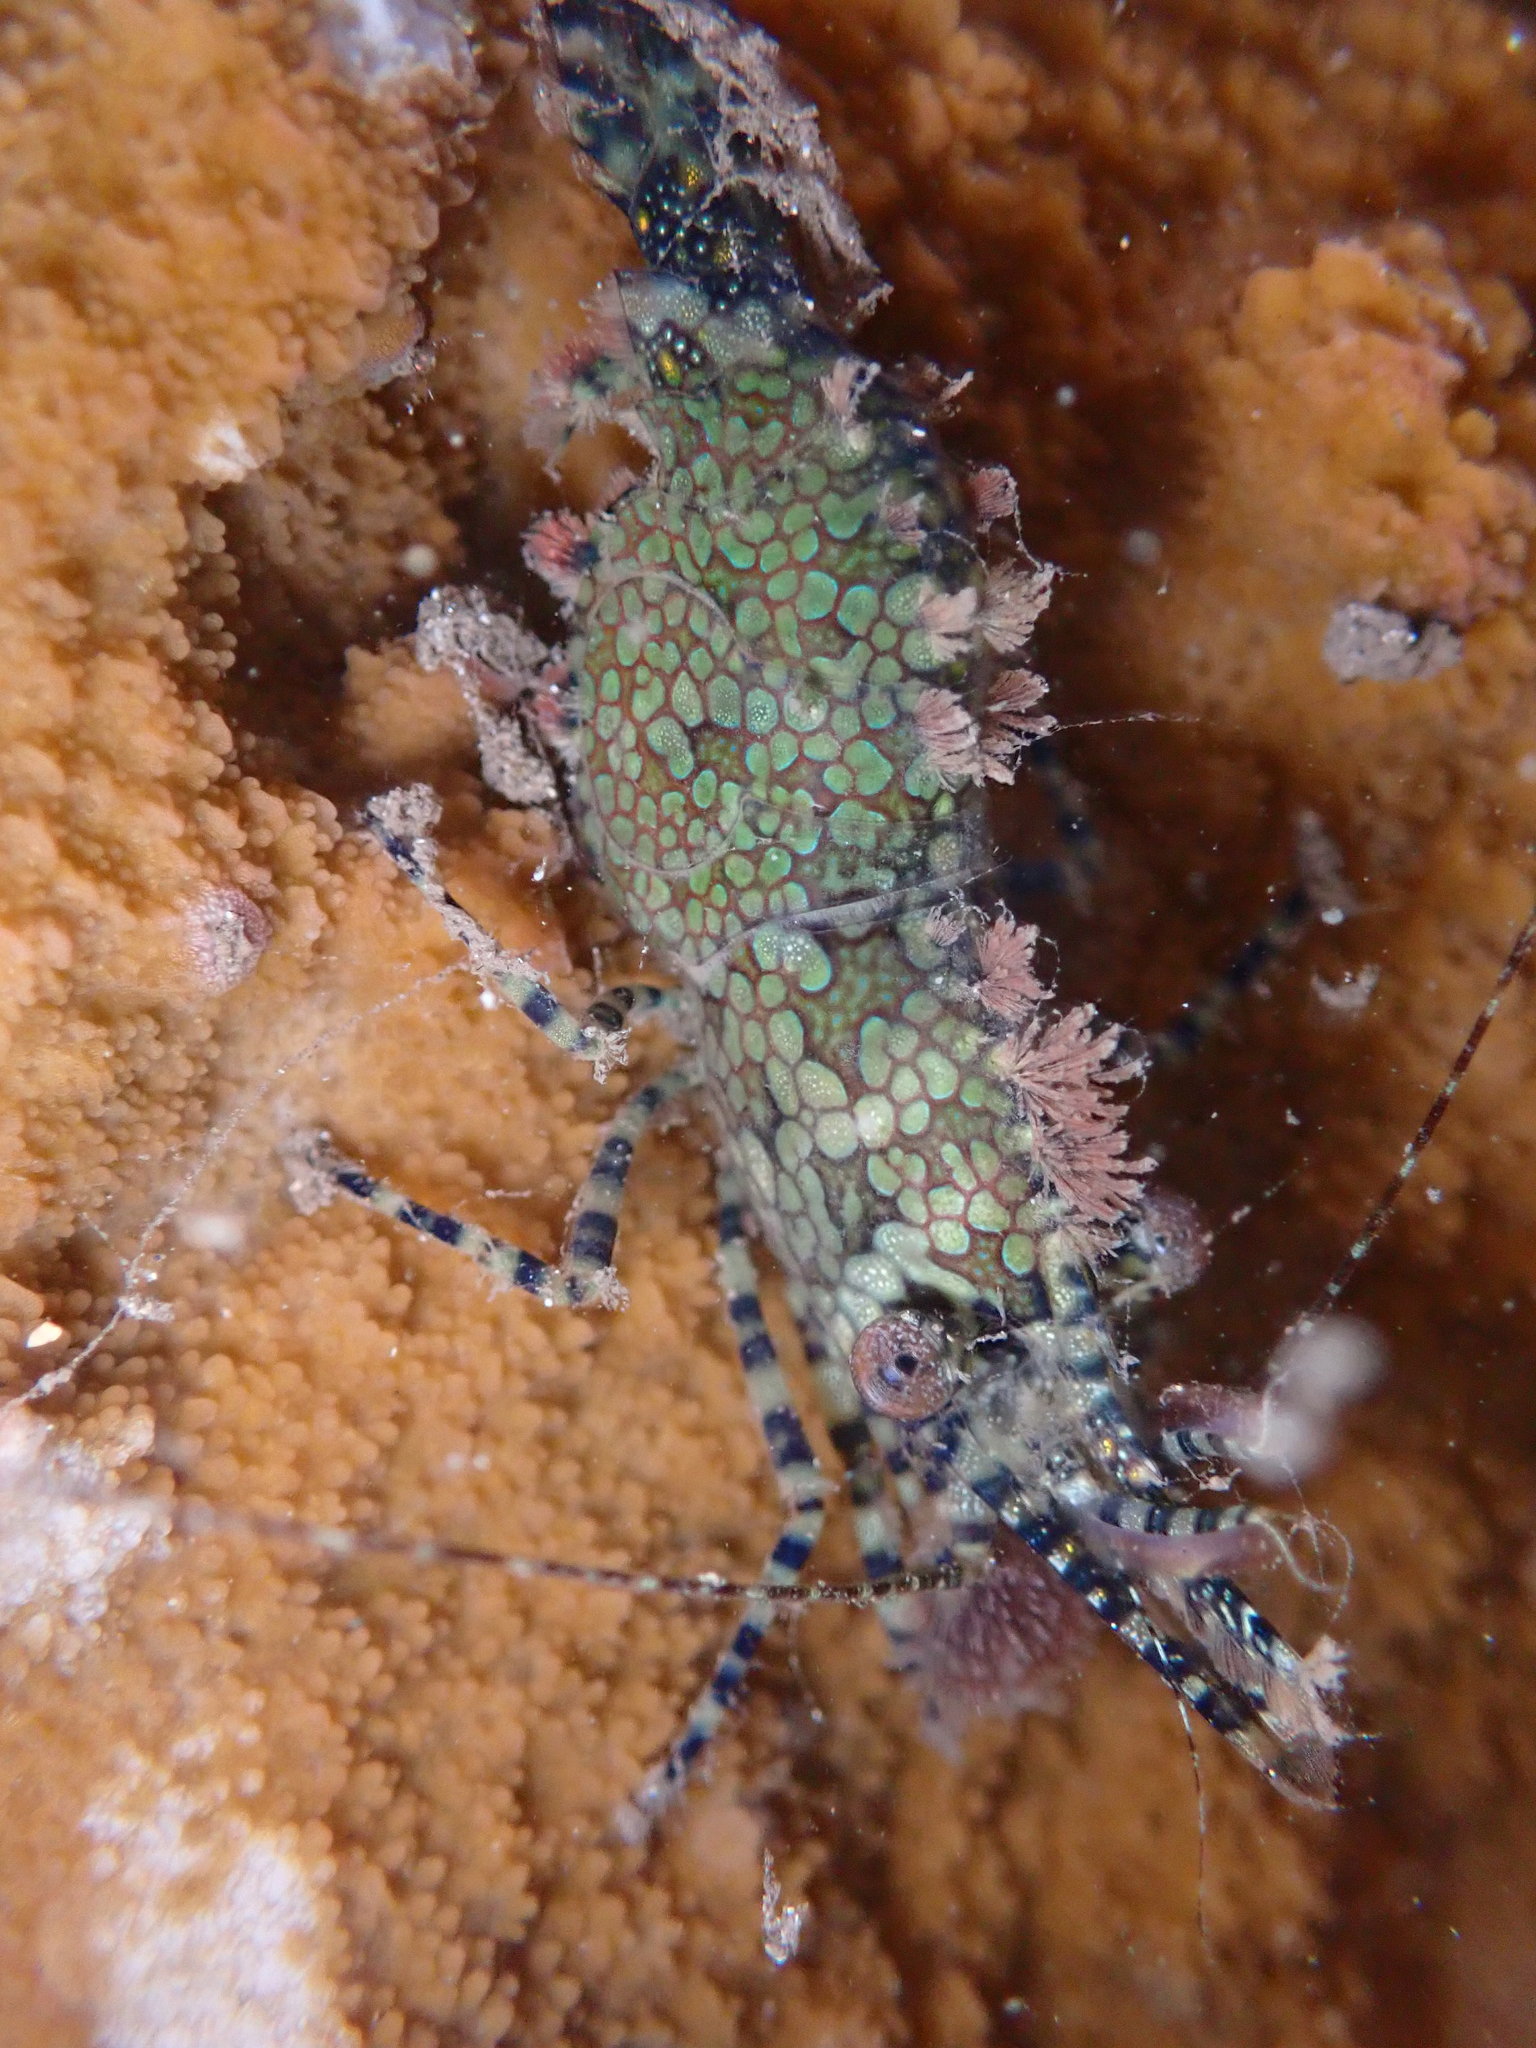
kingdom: Animalia
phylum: Arthropoda
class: Malacostraca
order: Decapoda
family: Hippolytidae
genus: Saron
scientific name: Saron marmoratus
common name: Common marble shrimp
